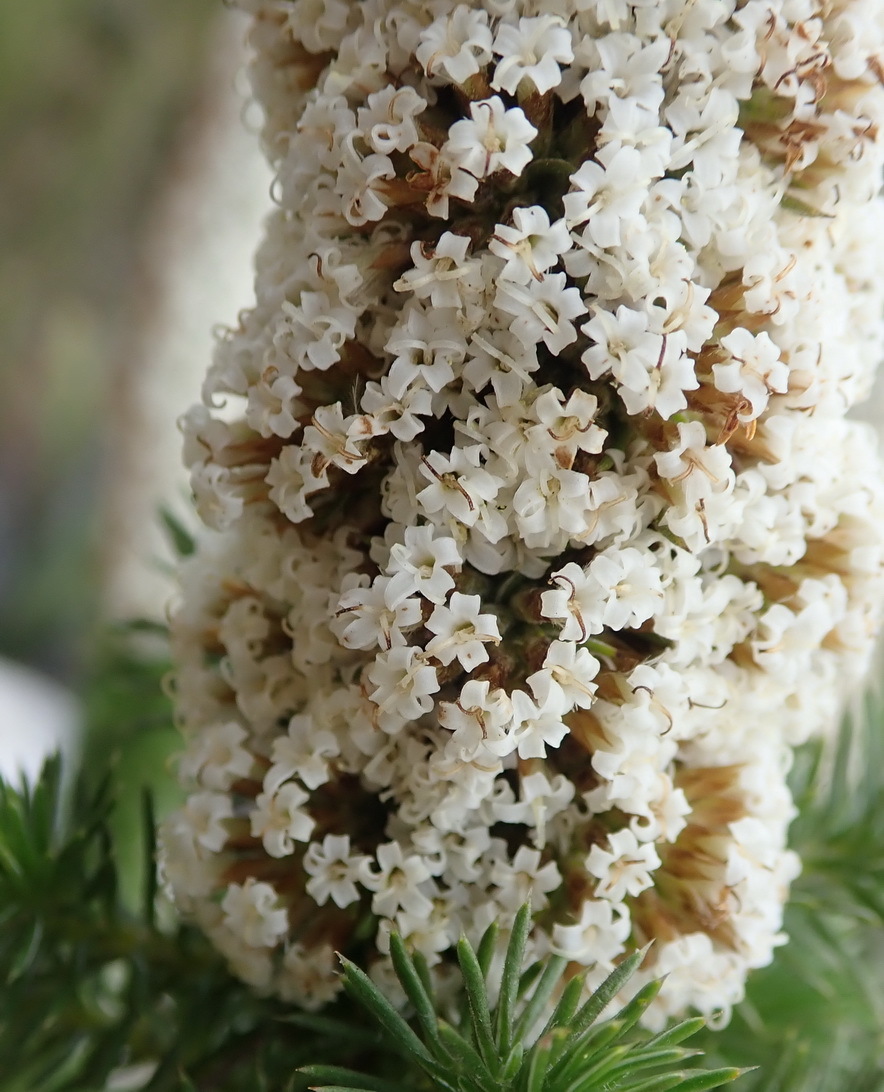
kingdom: Plantae
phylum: Tracheophyta
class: Magnoliopsida
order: Asterales
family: Asteraceae
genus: Stoebe
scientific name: Stoebe alopecuroides
